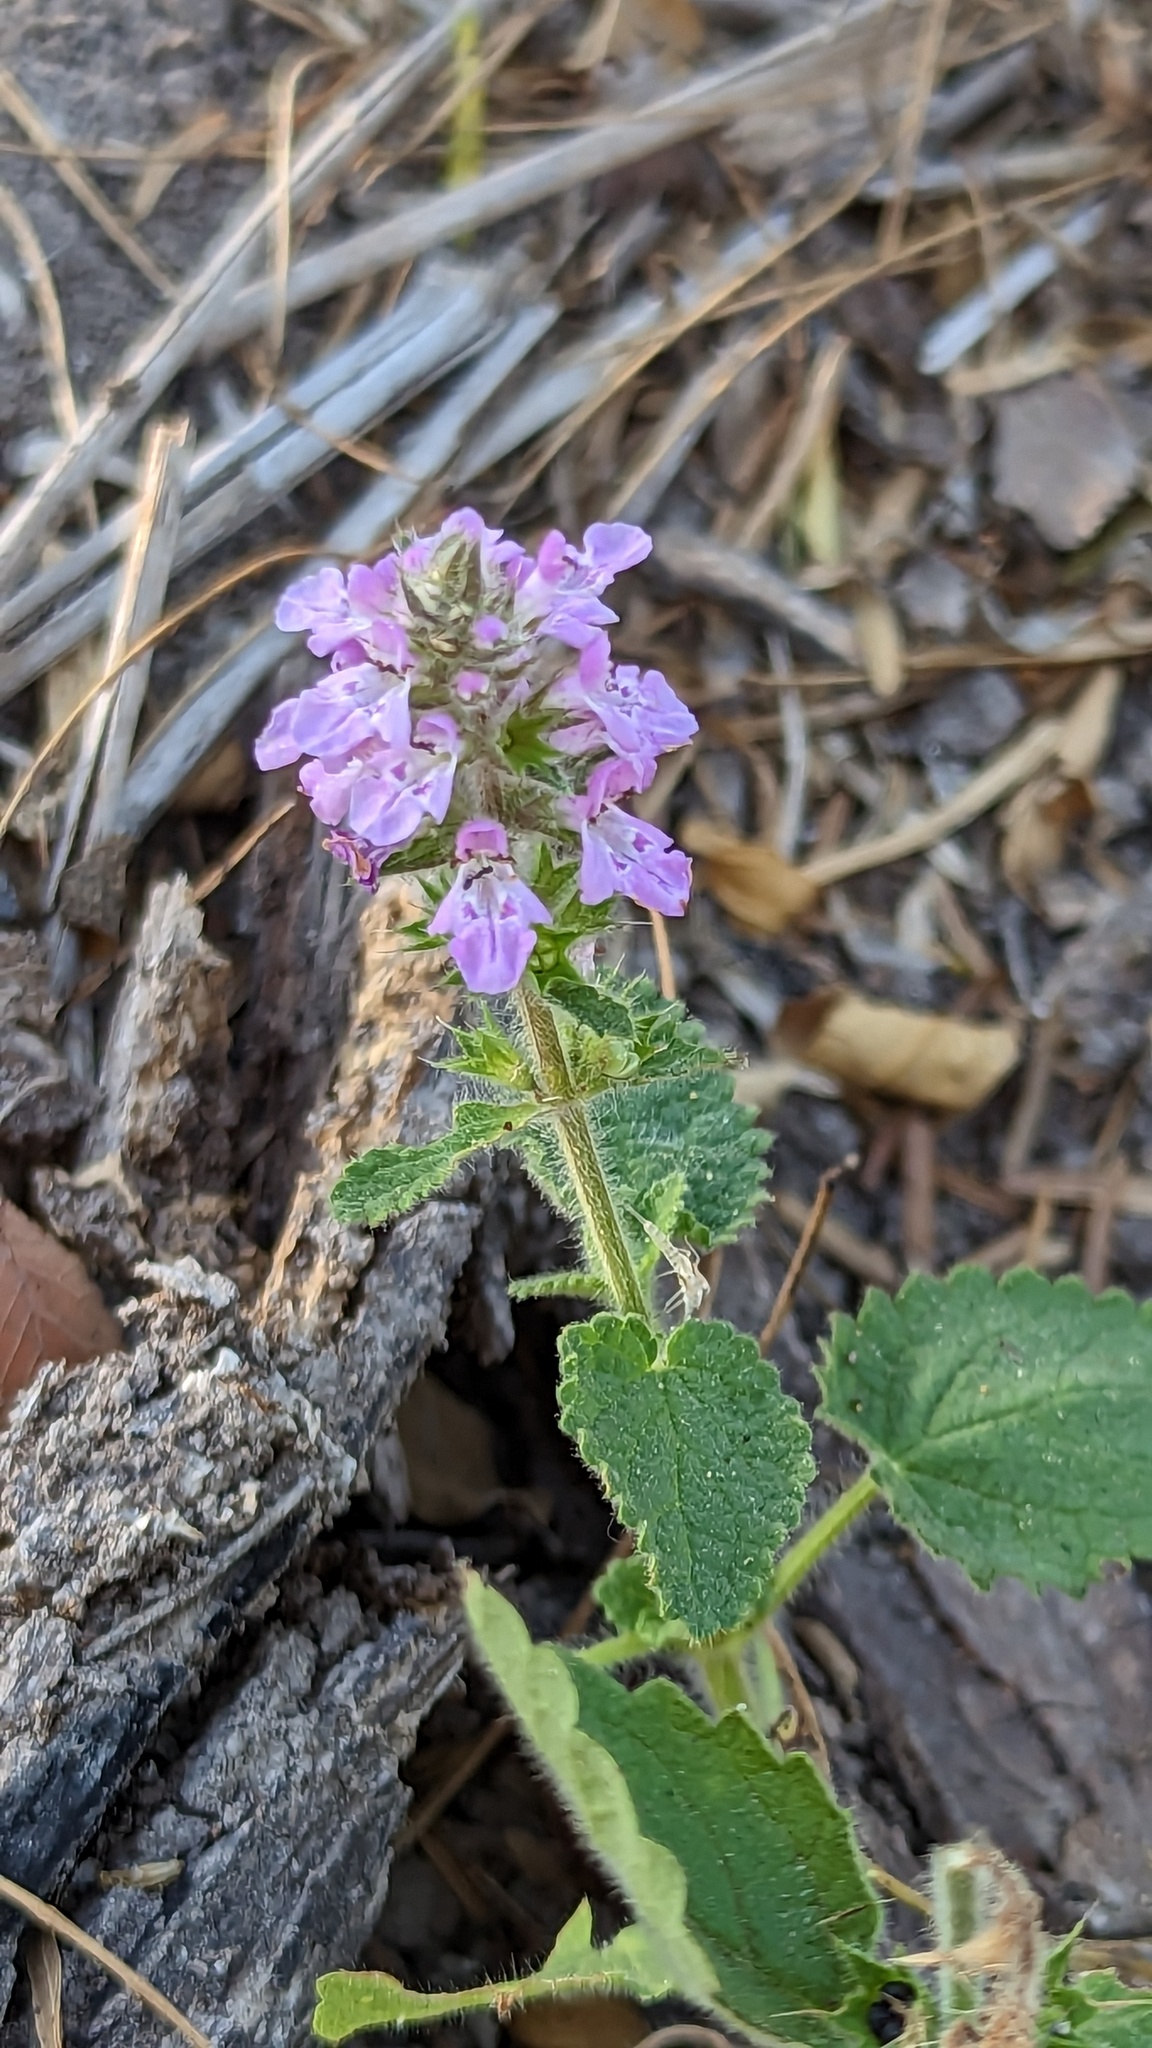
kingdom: Plantae
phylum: Tracheophyta
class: Magnoliopsida
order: Lamiales
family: Lamiaceae
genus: Stachys
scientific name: Stachys drummondii
